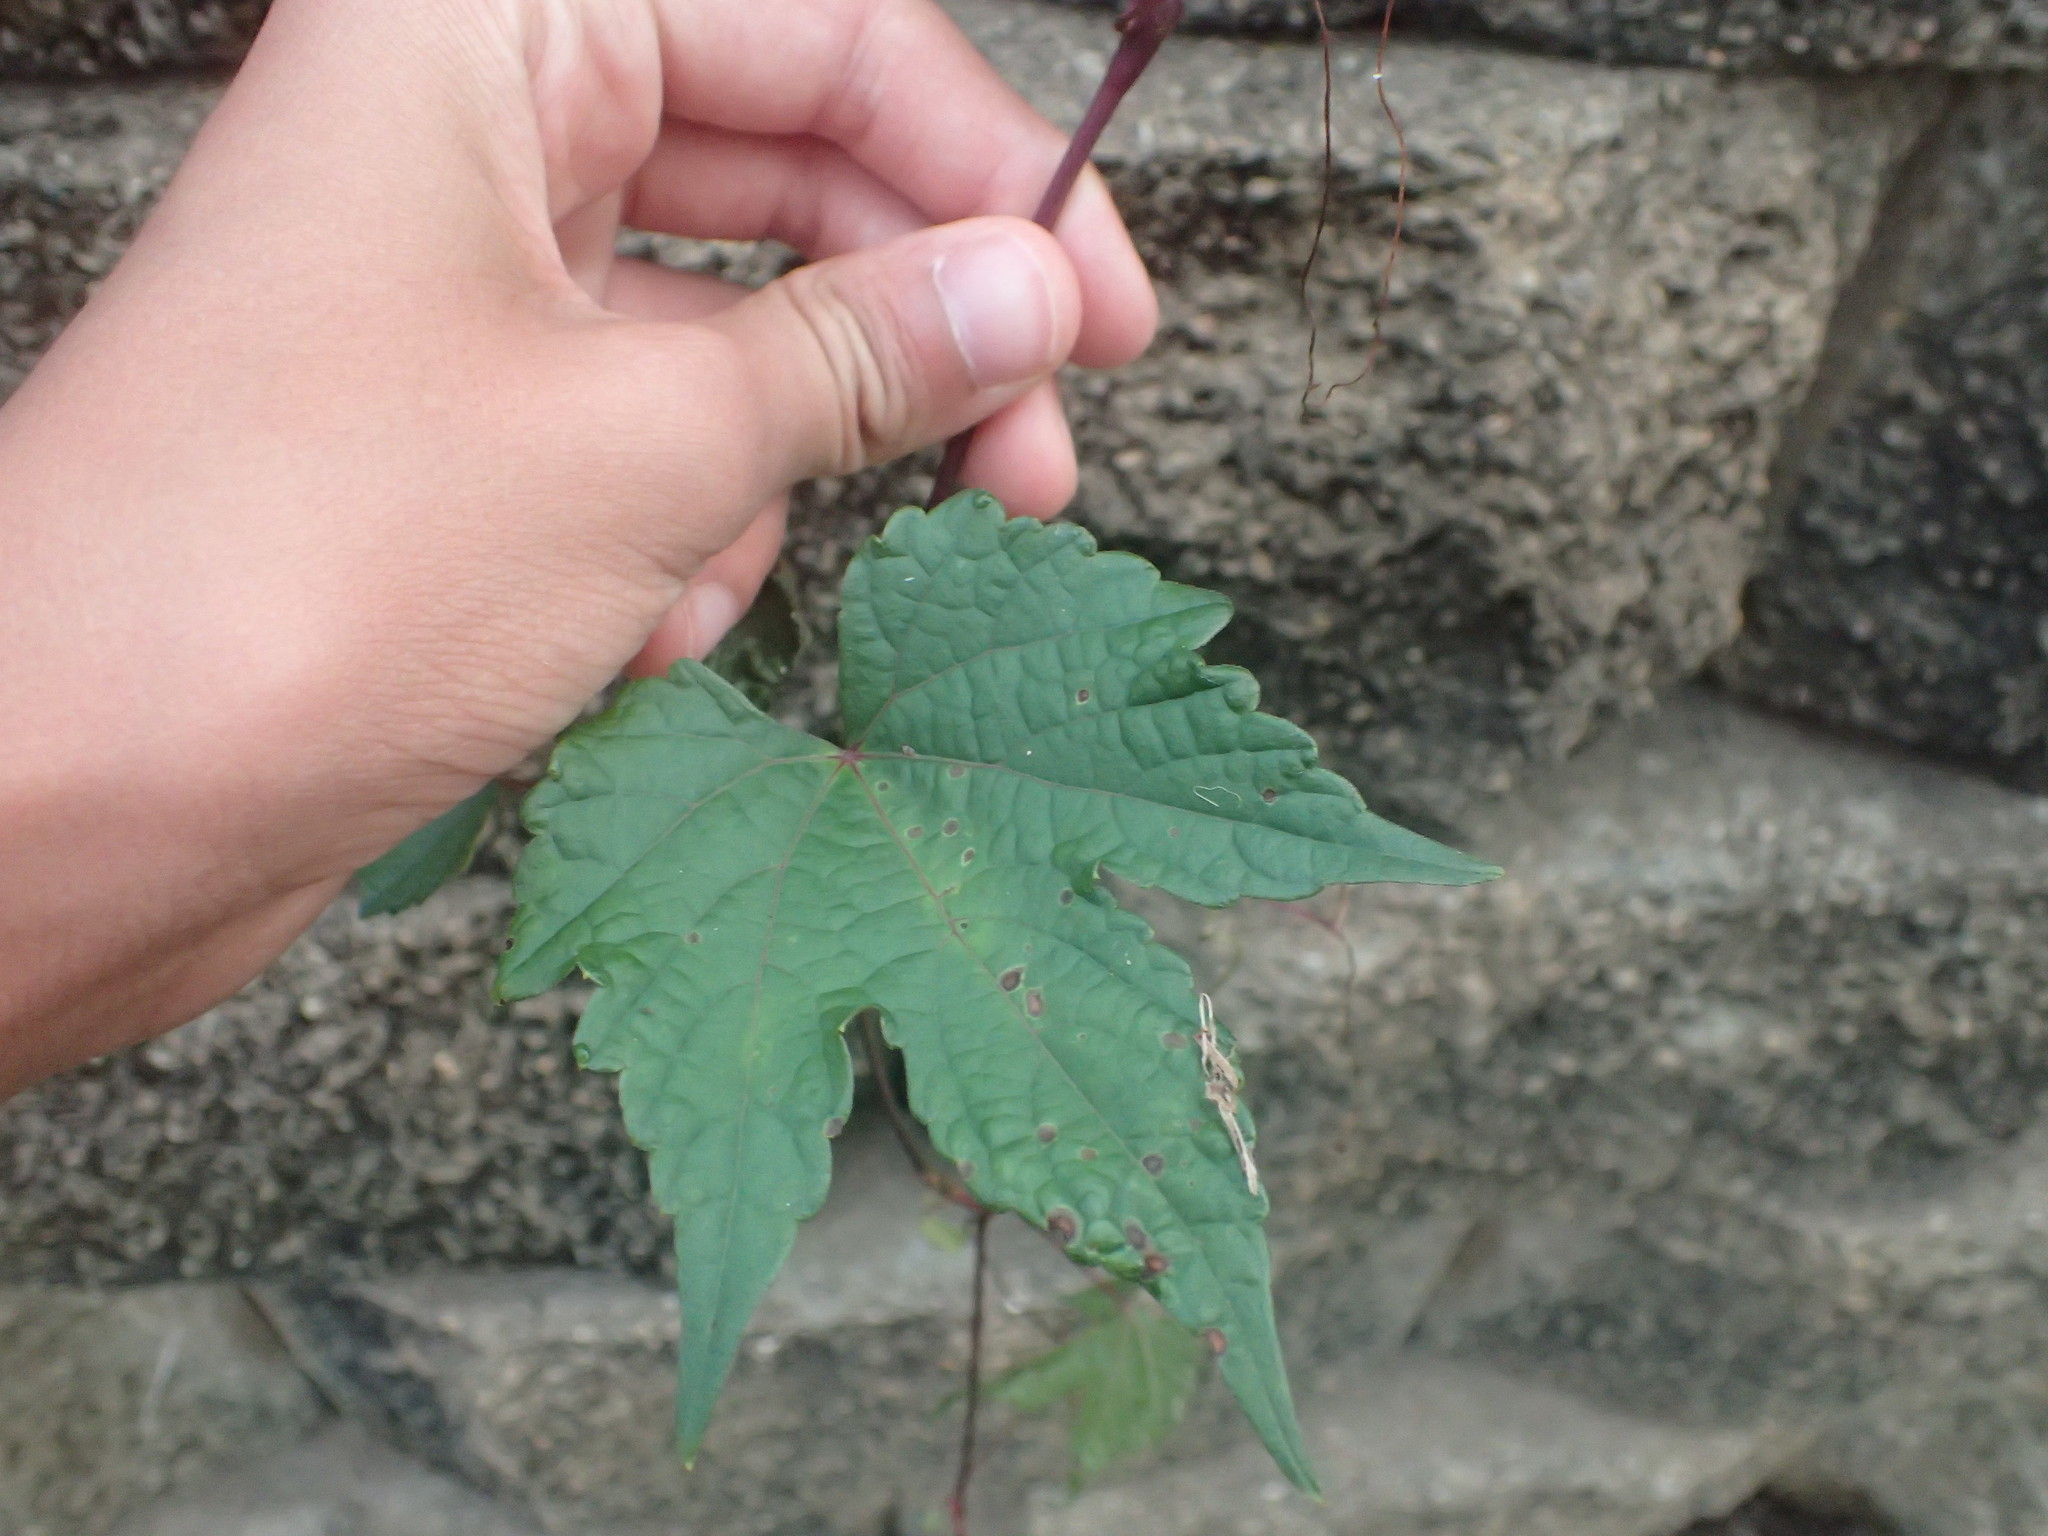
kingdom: Plantae
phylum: Tracheophyta
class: Magnoliopsida
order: Vitales
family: Vitaceae
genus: Ampelopsis
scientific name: Ampelopsis glandulosa
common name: Amur peppervine
